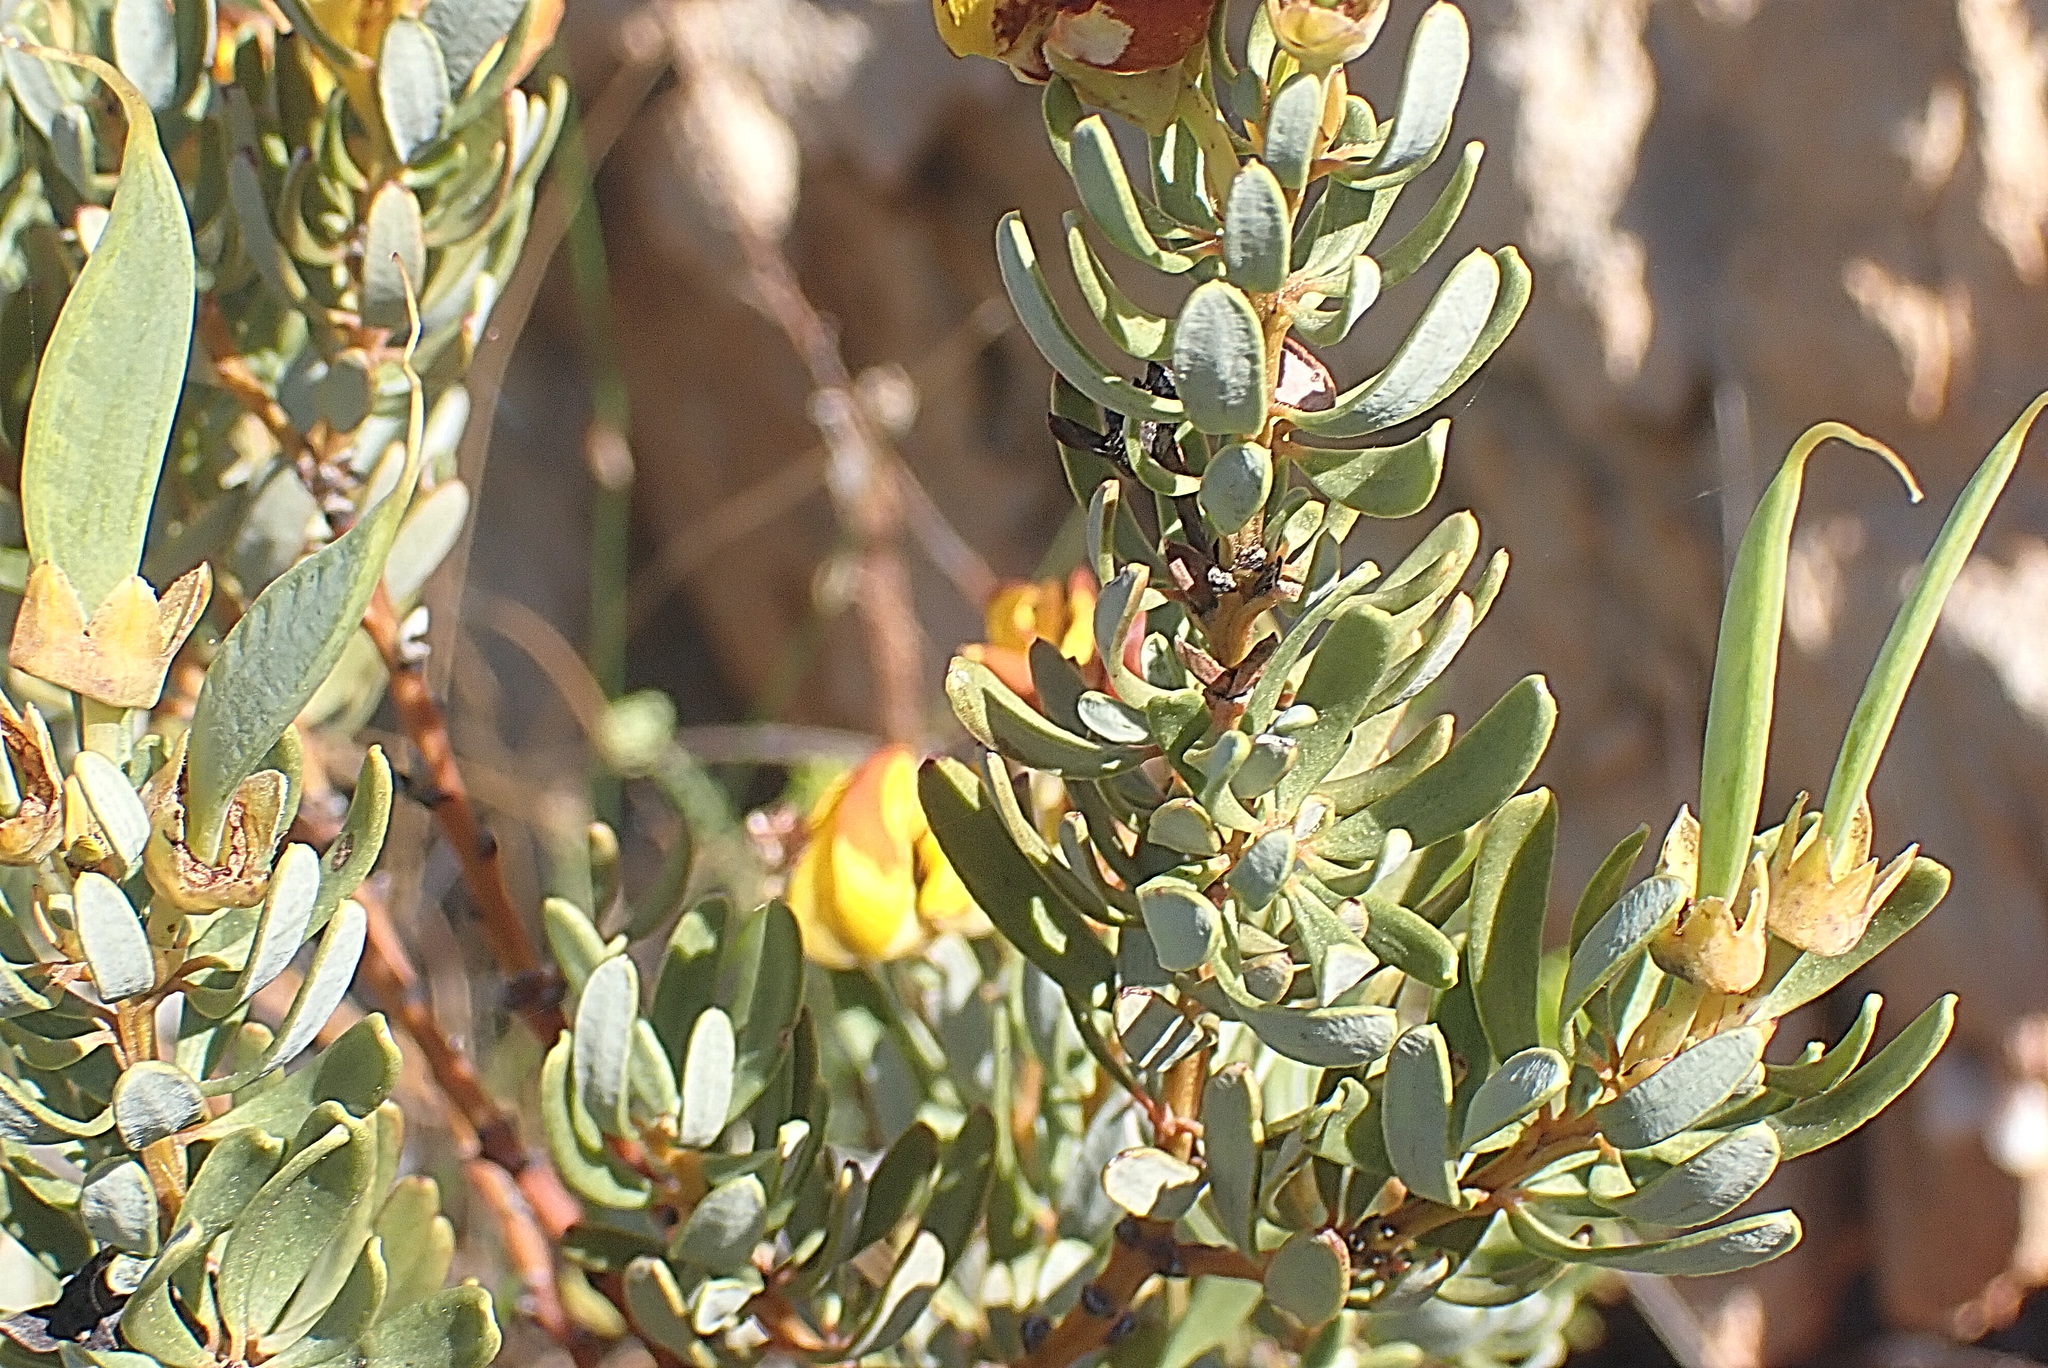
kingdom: Plantae
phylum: Tracheophyta
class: Magnoliopsida
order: Fabales
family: Fabaceae
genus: Cyclopia
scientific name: Cyclopia intermedia
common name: Mountain tea
